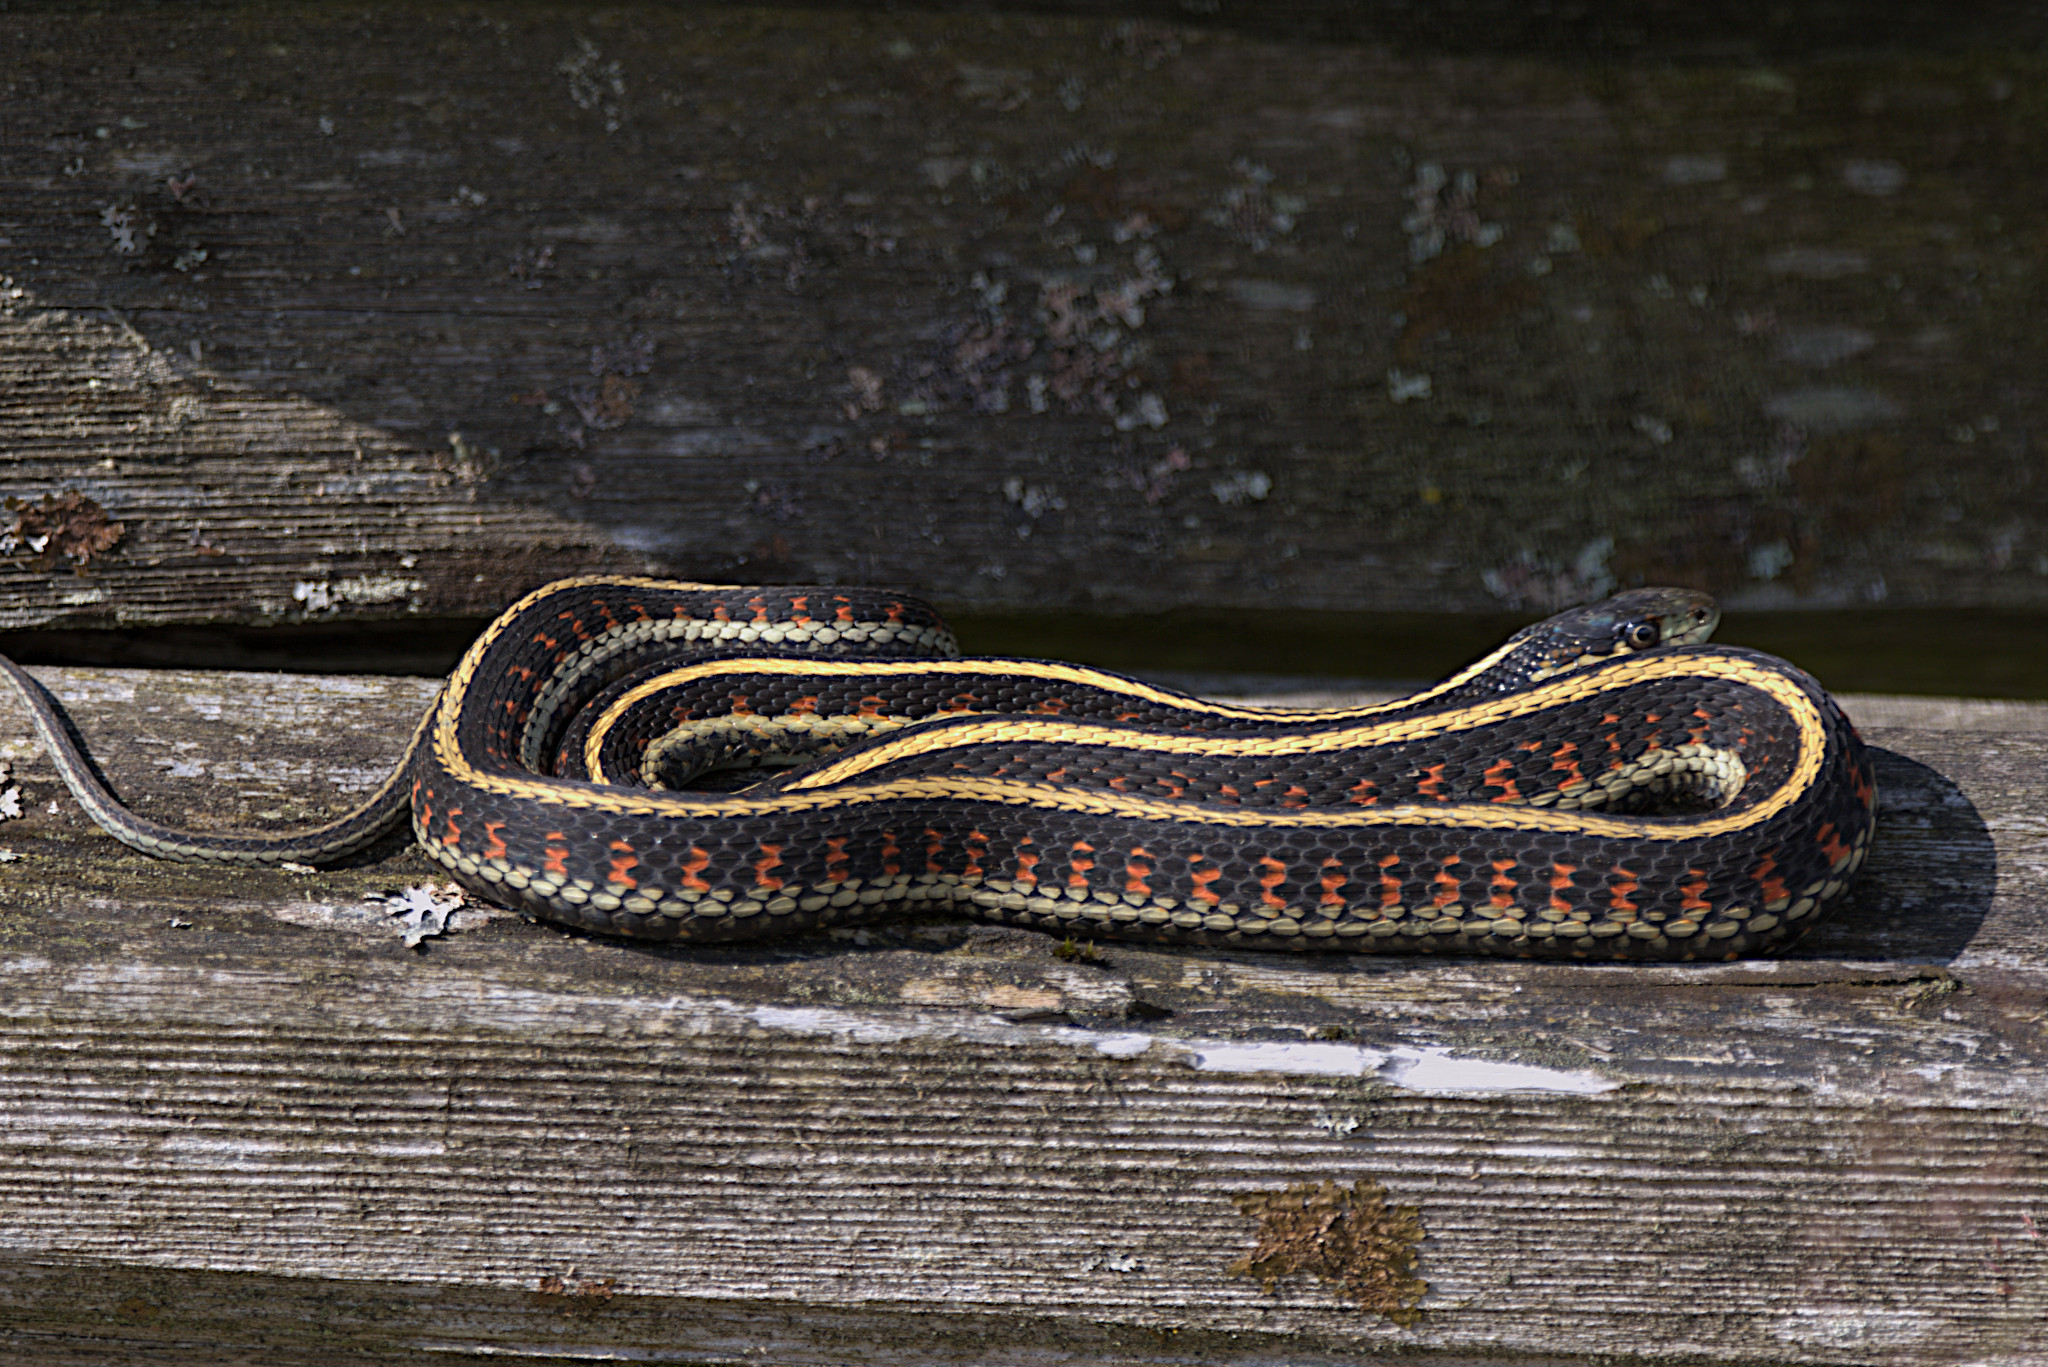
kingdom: Animalia
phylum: Chordata
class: Squamata
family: Colubridae
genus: Thamnophis
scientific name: Thamnophis sirtalis
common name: Common garter snake
